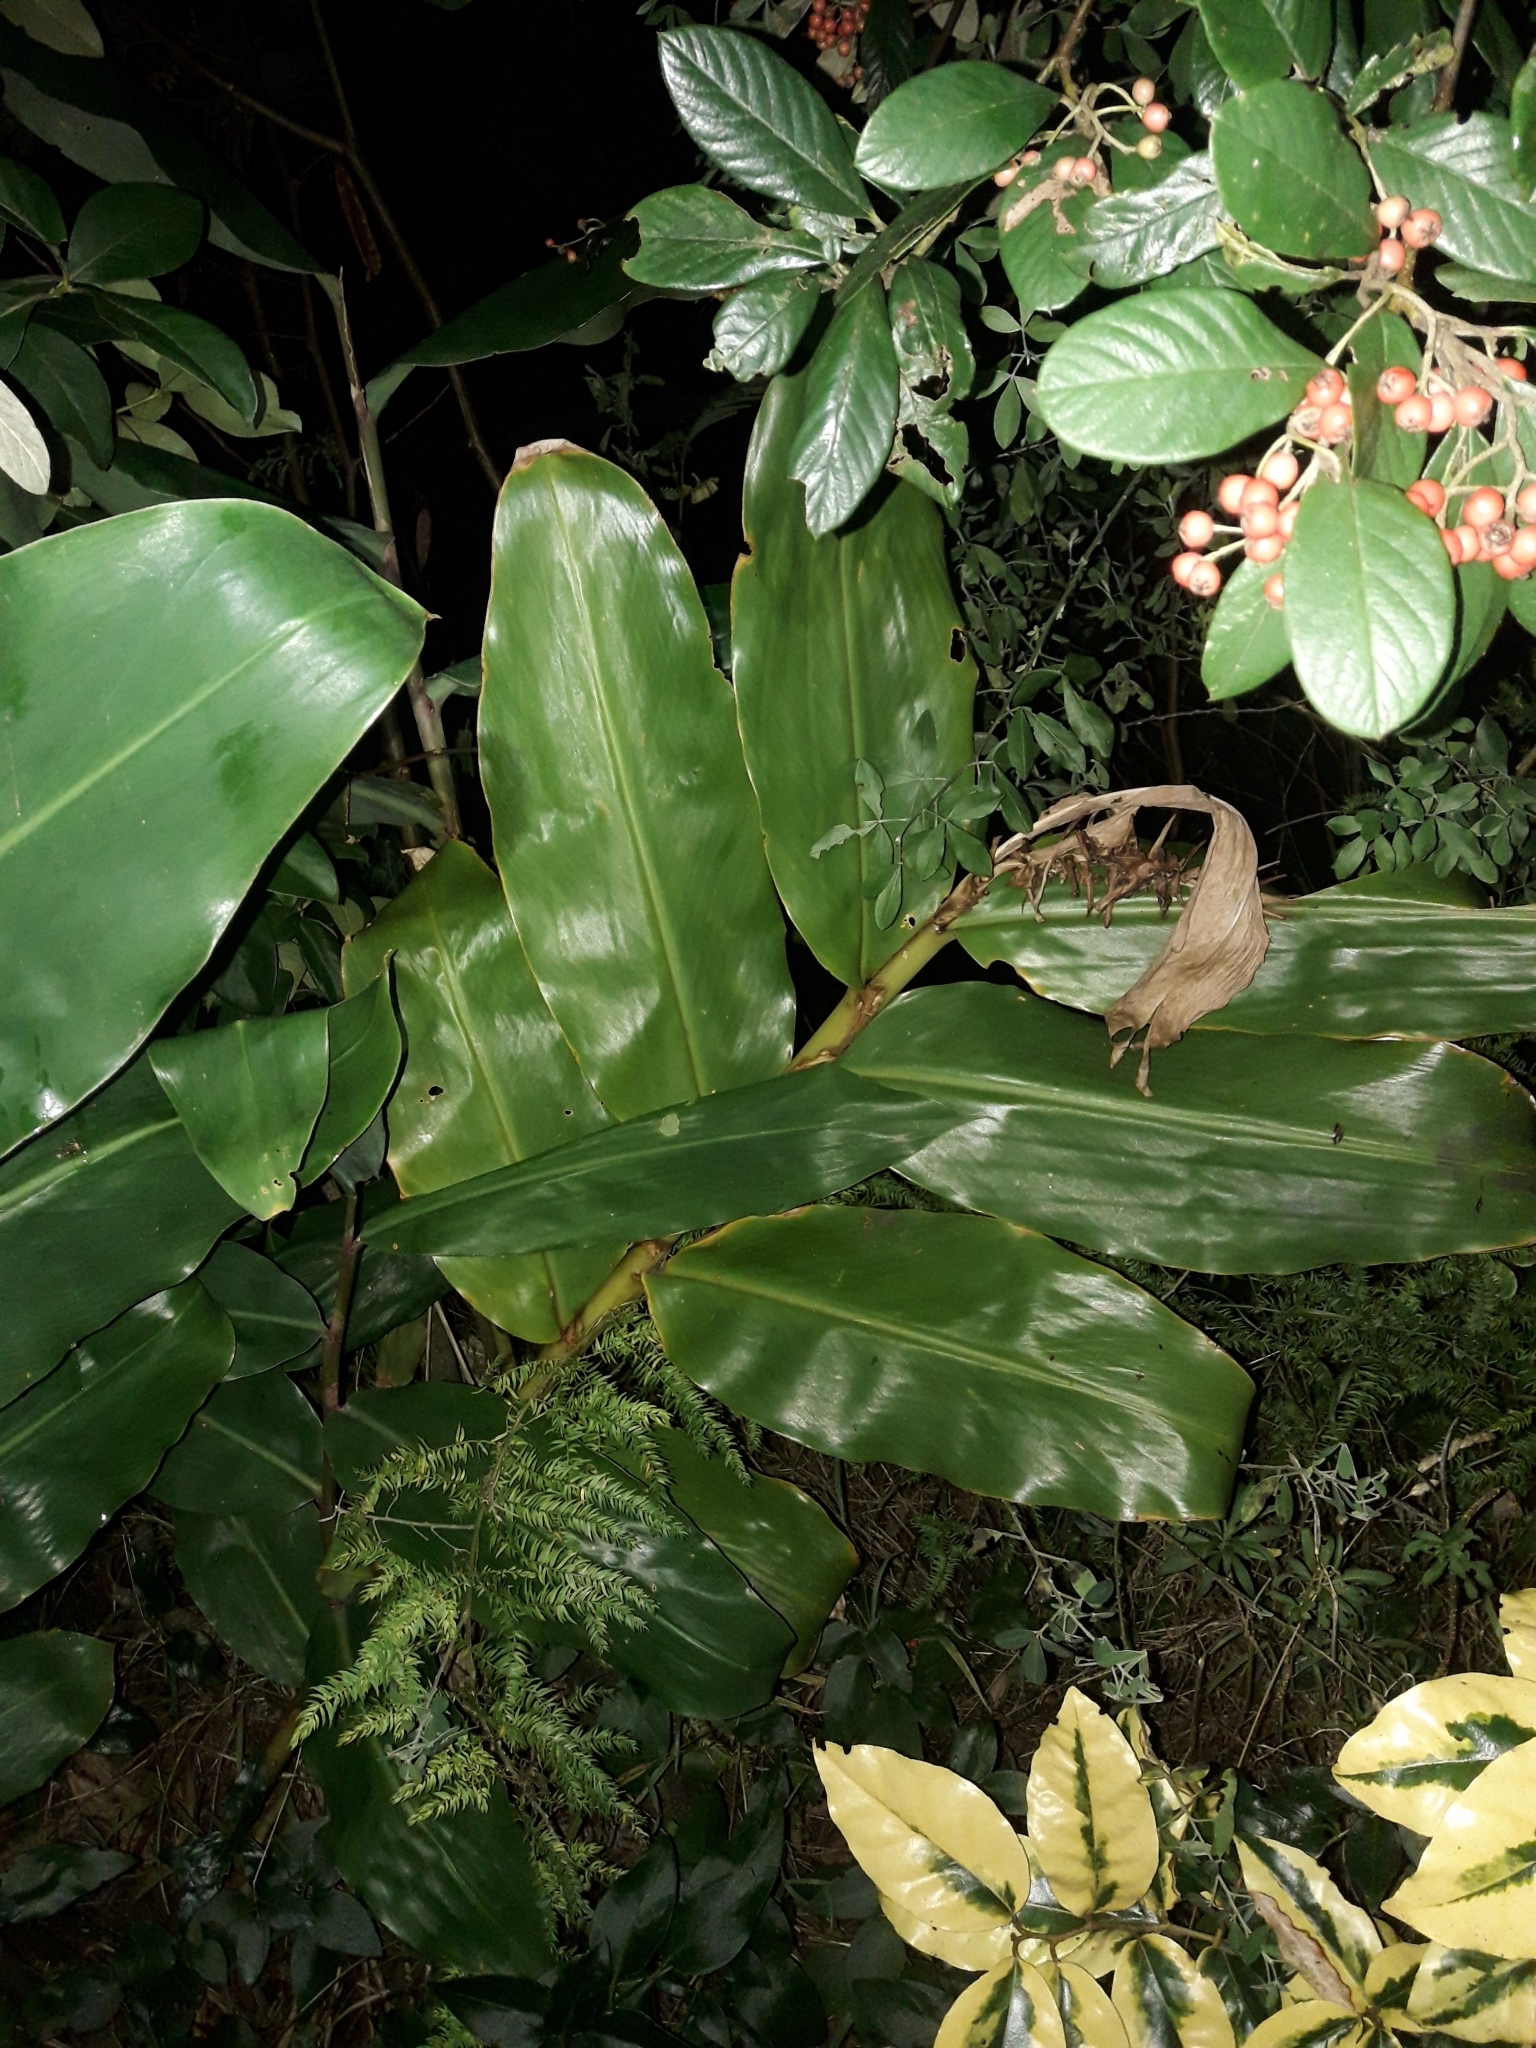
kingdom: Plantae
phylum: Tracheophyta
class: Liliopsida
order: Zingiberales
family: Zingiberaceae
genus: Hedychium
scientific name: Hedychium gardnerianum
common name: Himalayan ginger
